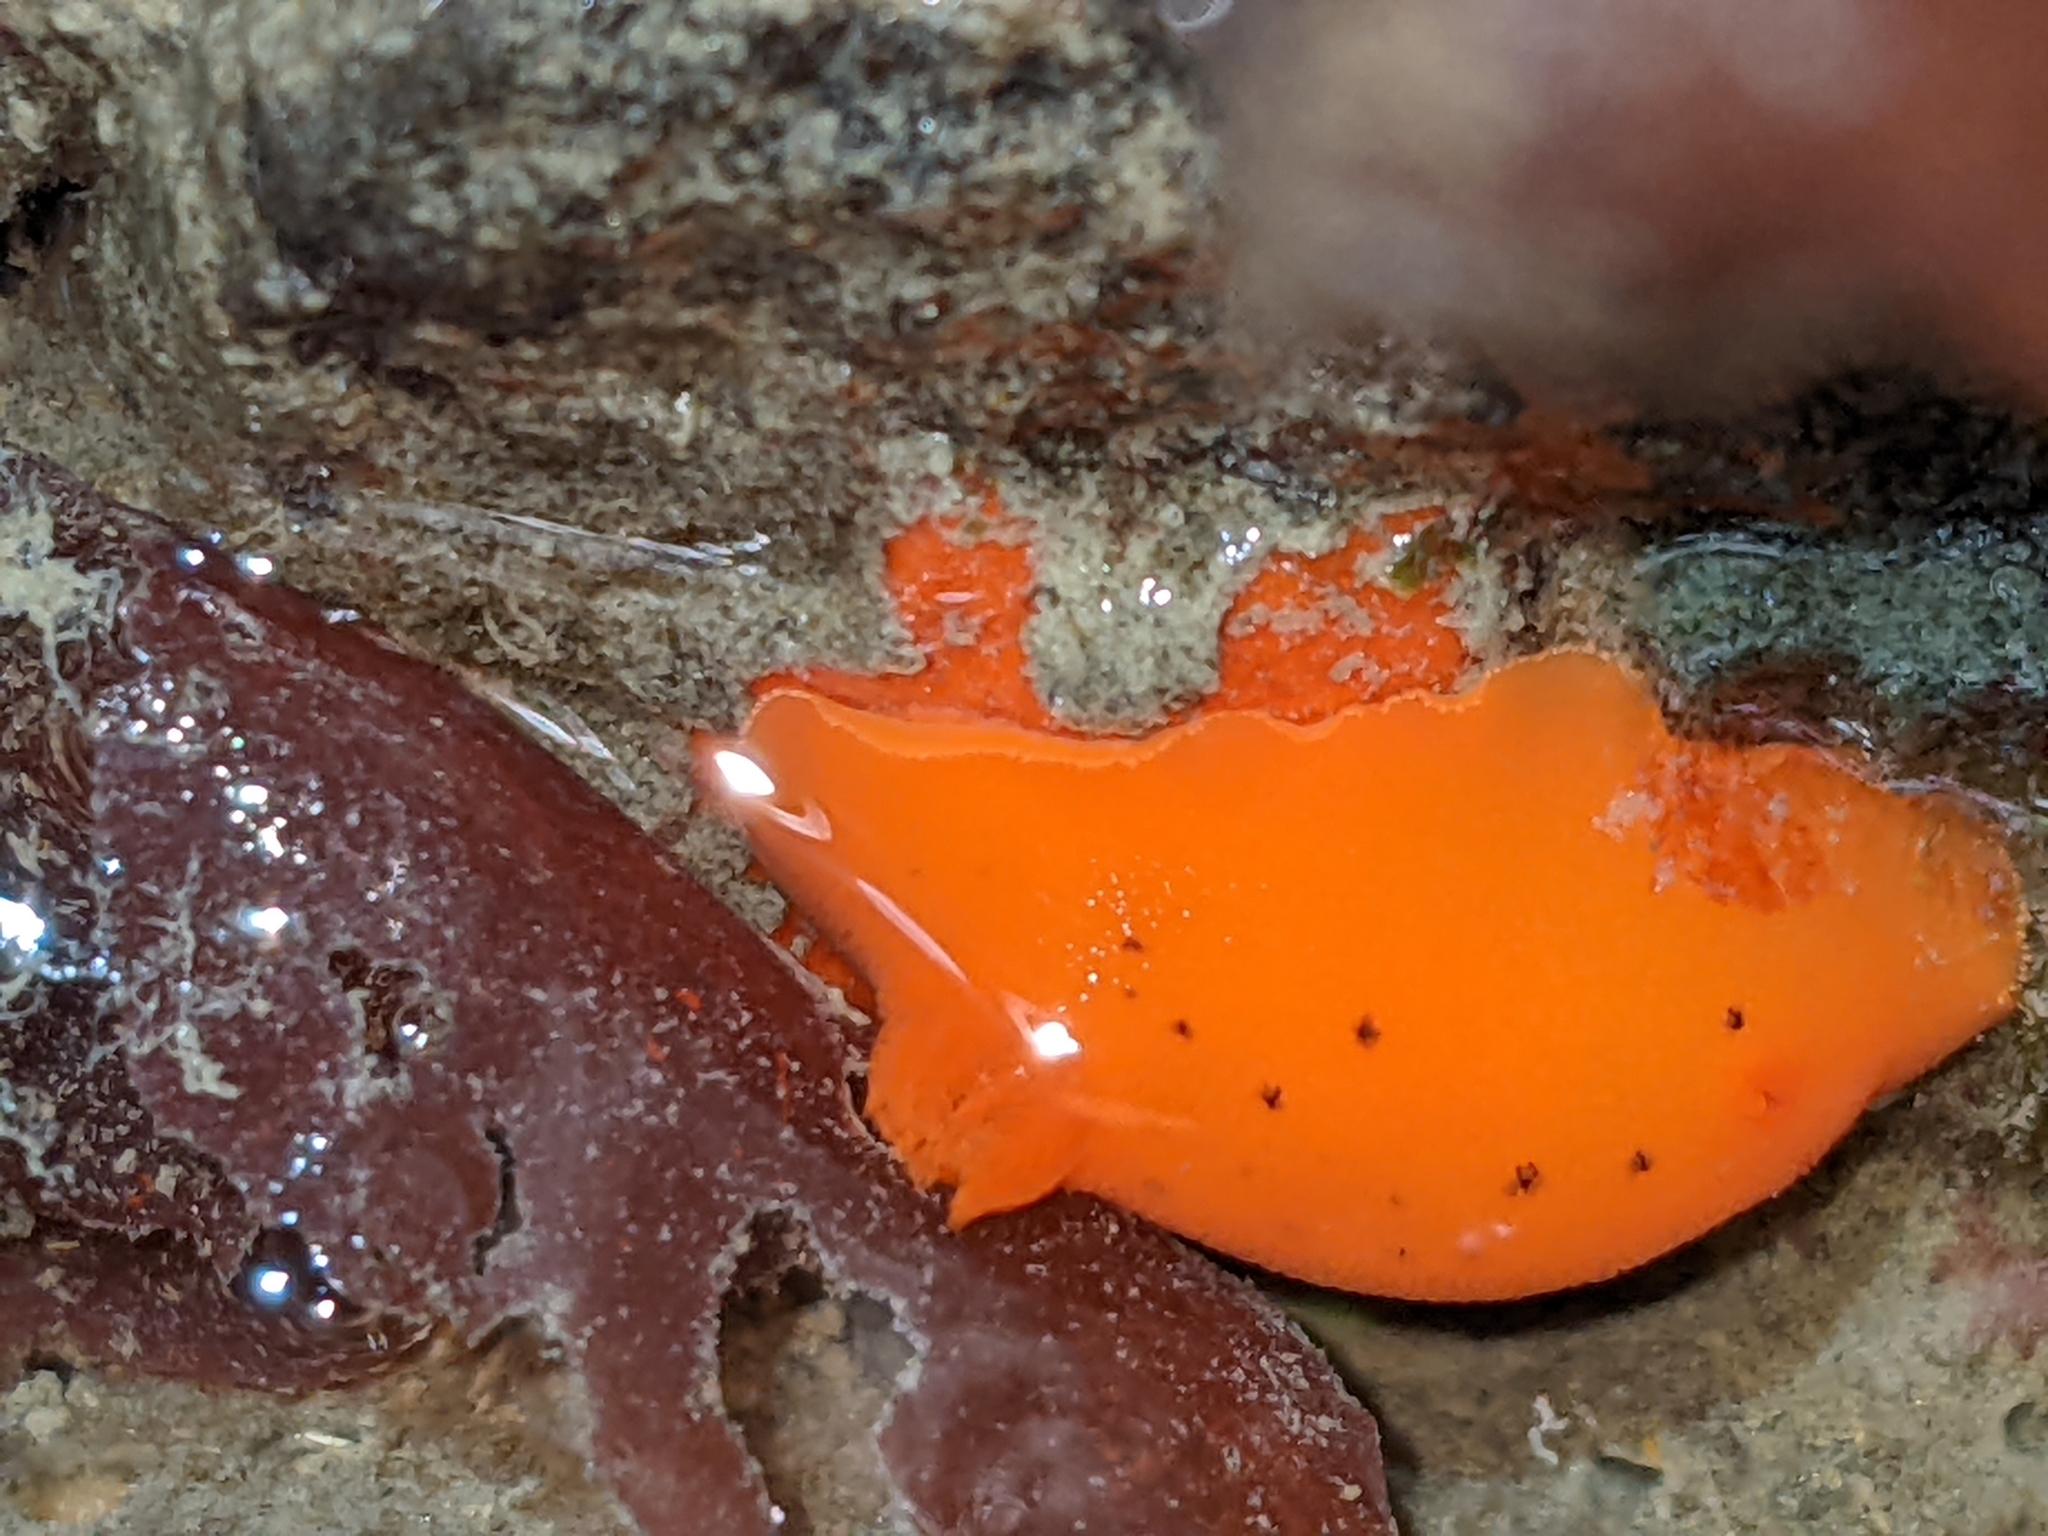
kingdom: Animalia
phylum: Mollusca
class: Gastropoda
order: Nudibranchia
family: Discodorididae
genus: Rostanga
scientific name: Rostanga pulchra
